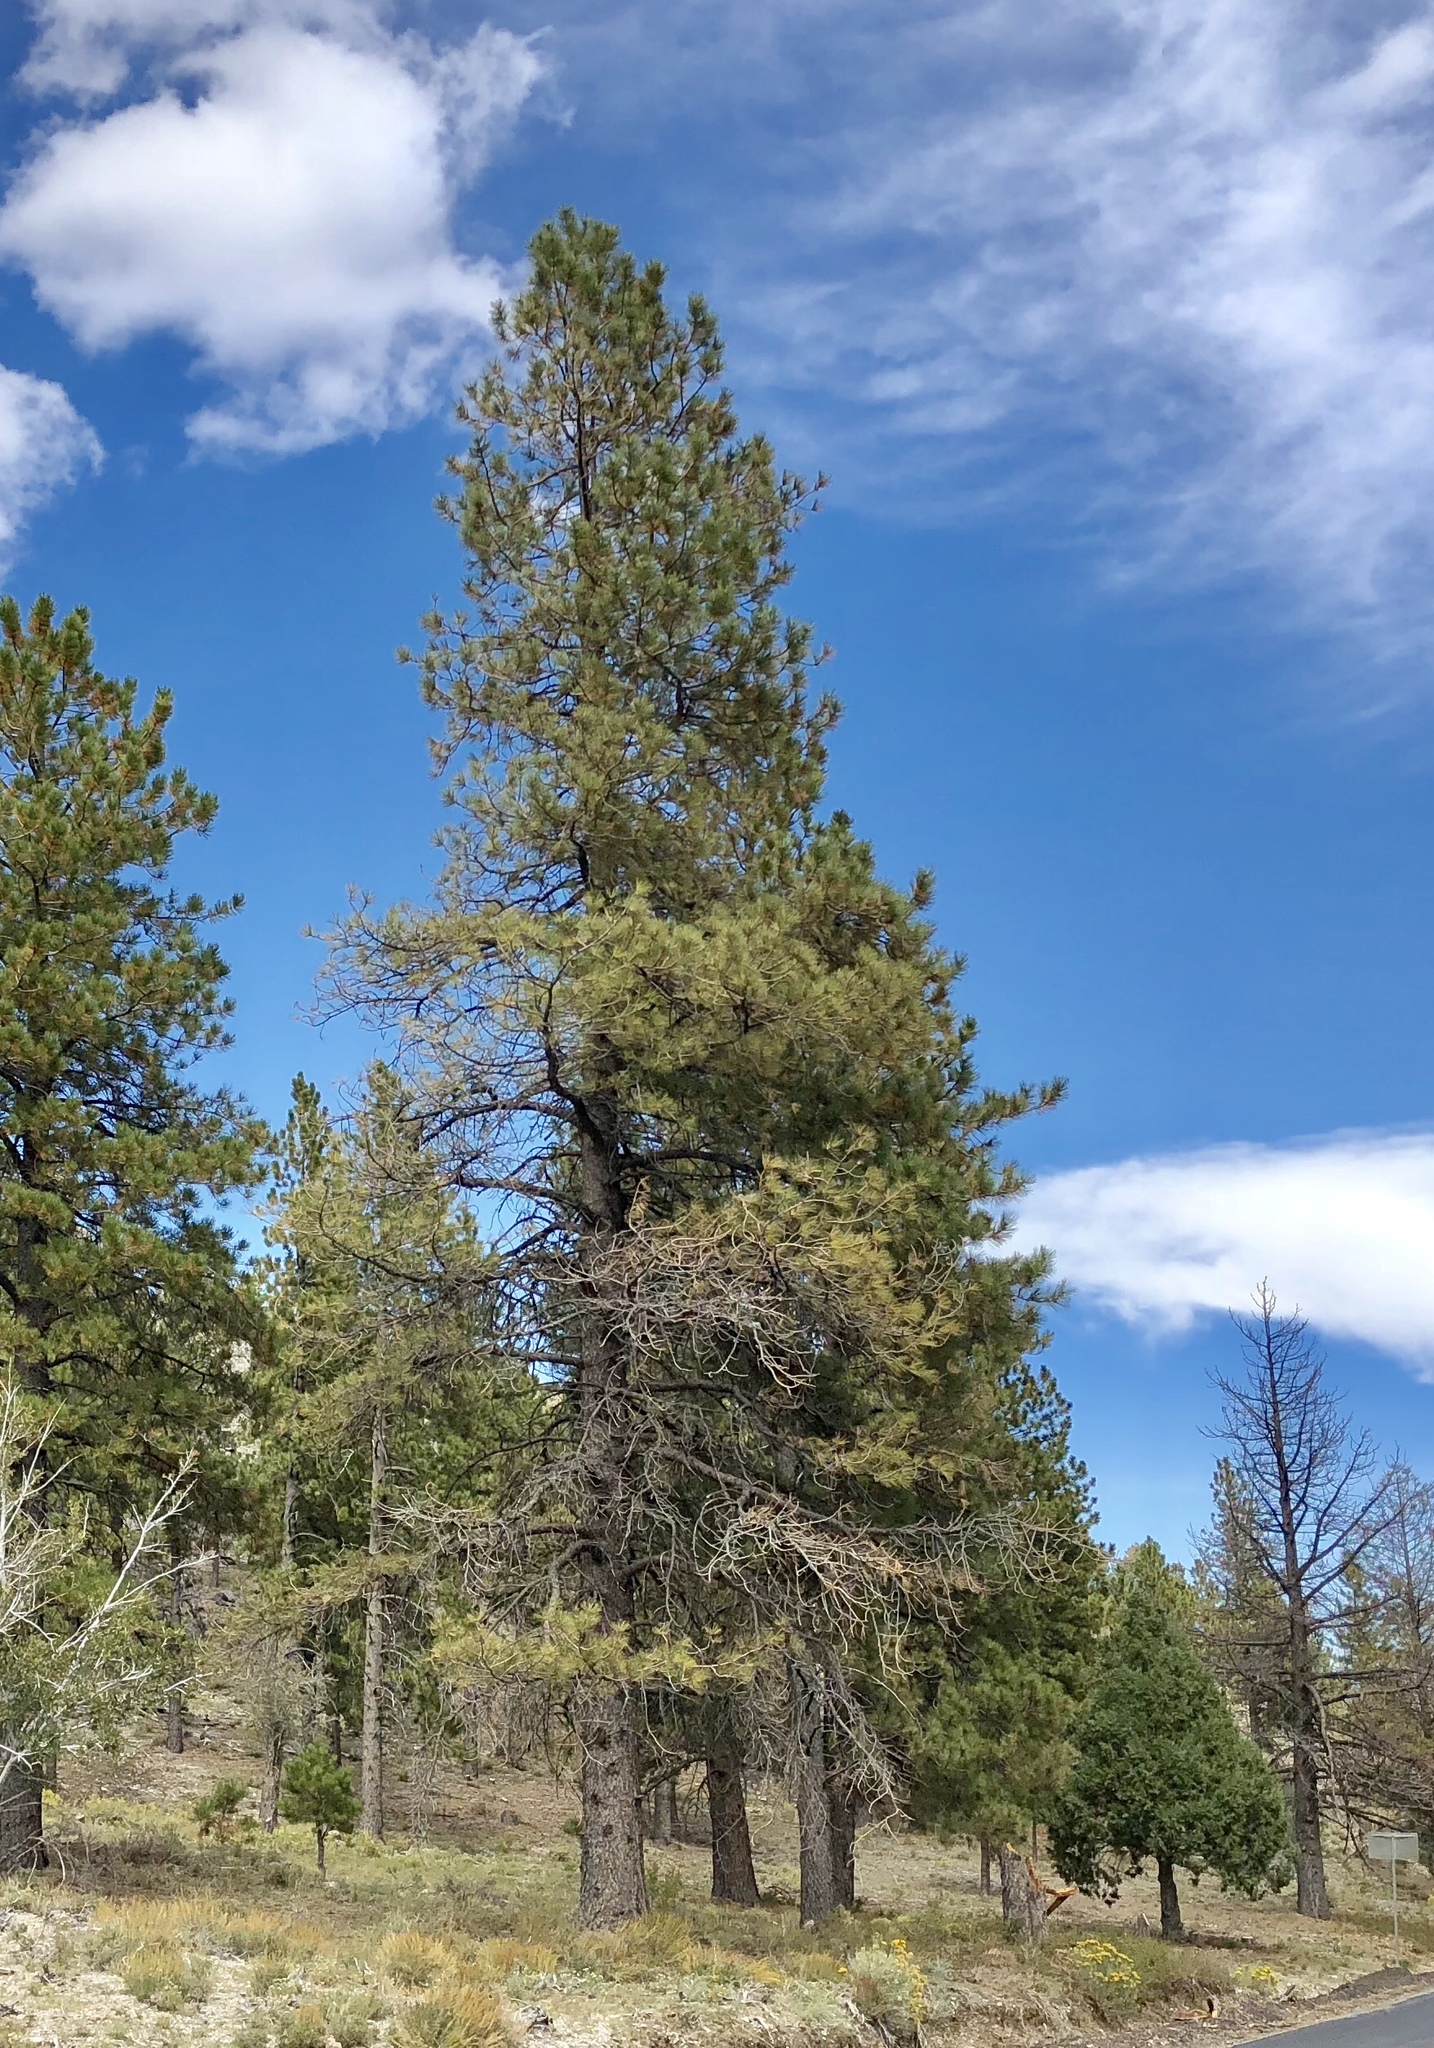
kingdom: Plantae
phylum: Tracheophyta
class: Pinopsida
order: Pinales
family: Pinaceae
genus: Pinus
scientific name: Pinus ponderosa
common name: Western yellow-pine
